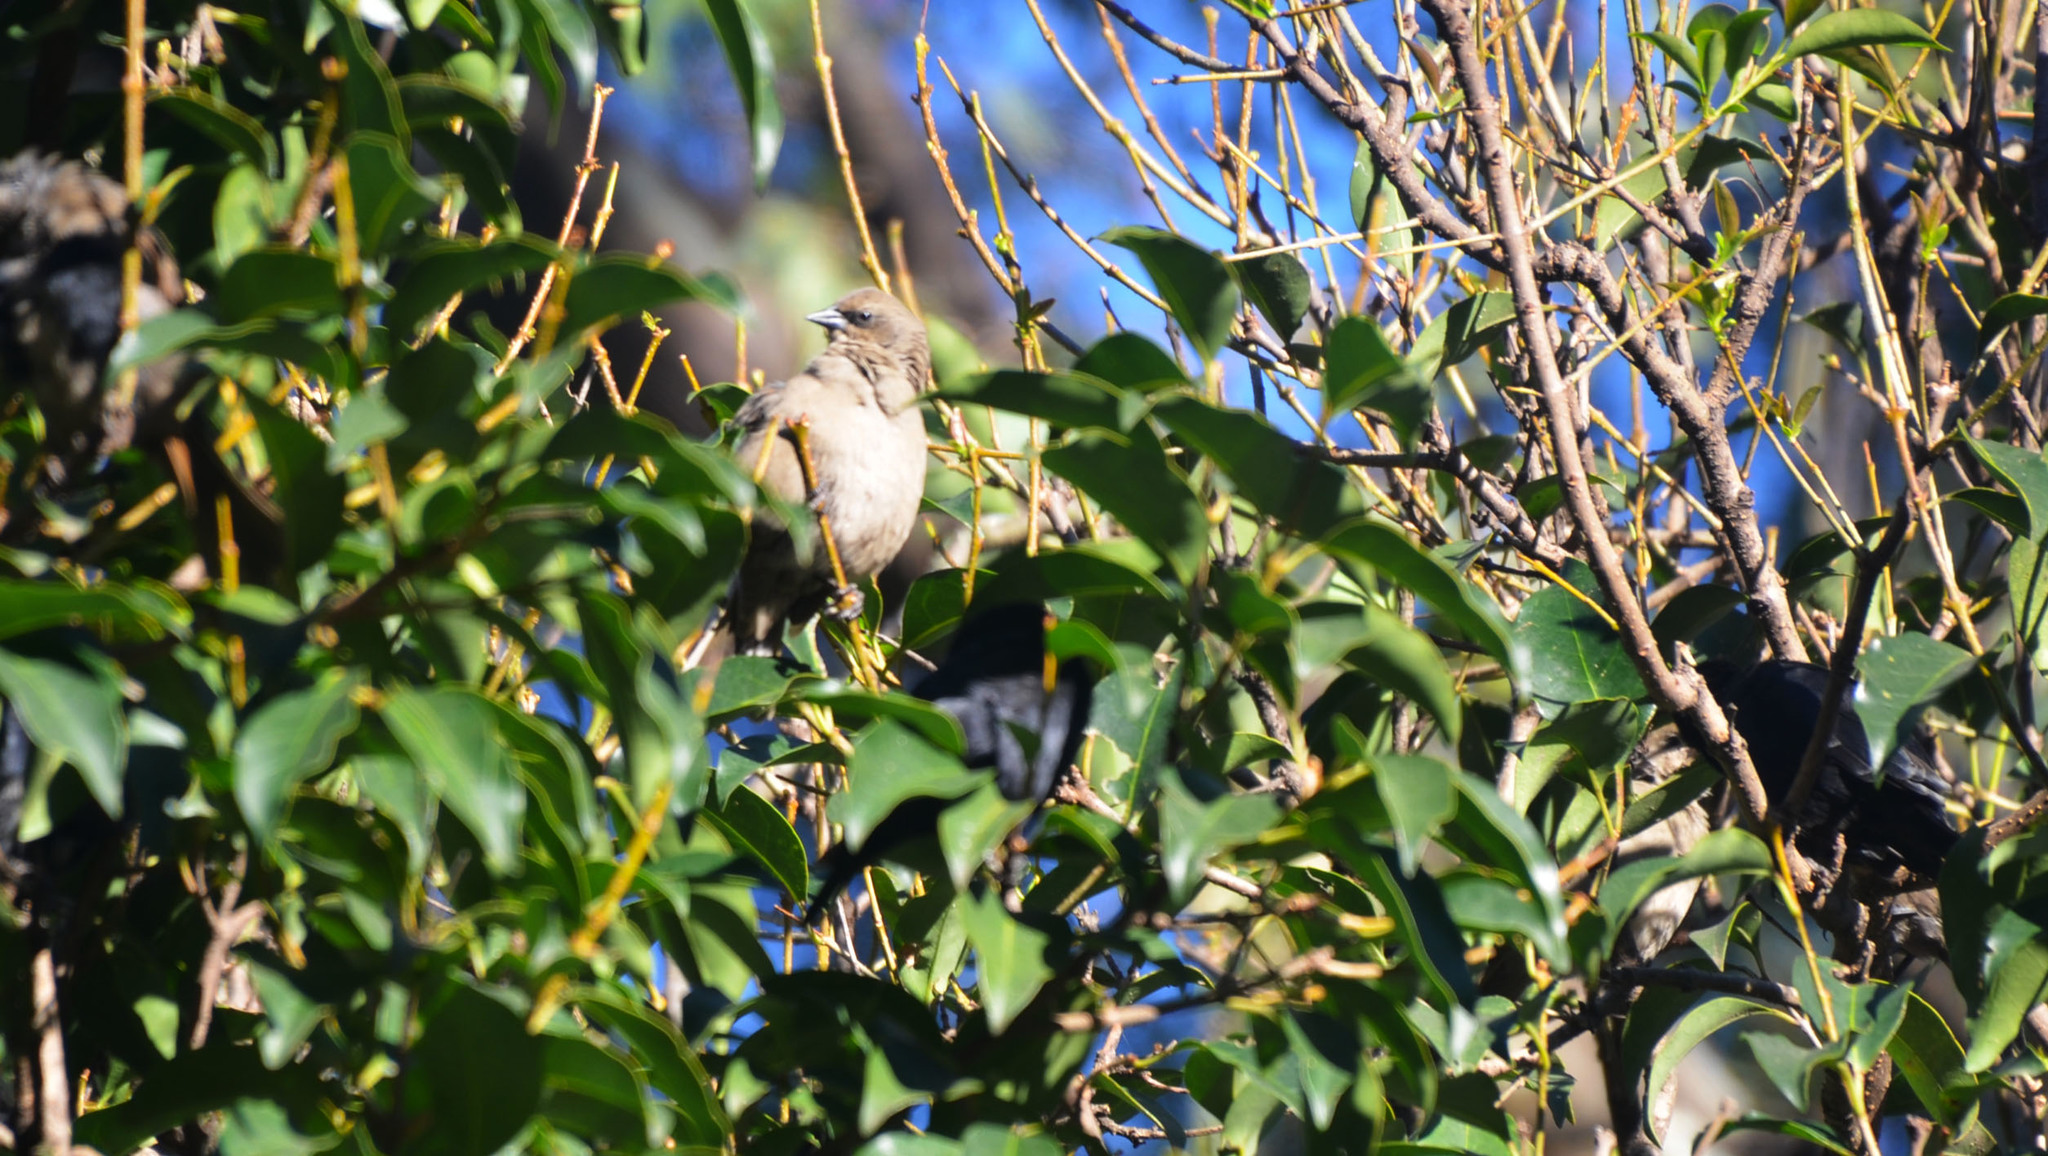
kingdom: Animalia
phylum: Chordata
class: Aves
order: Passeriformes
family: Icteridae
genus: Agelaioides
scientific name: Agelaioides badius
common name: Baywing
